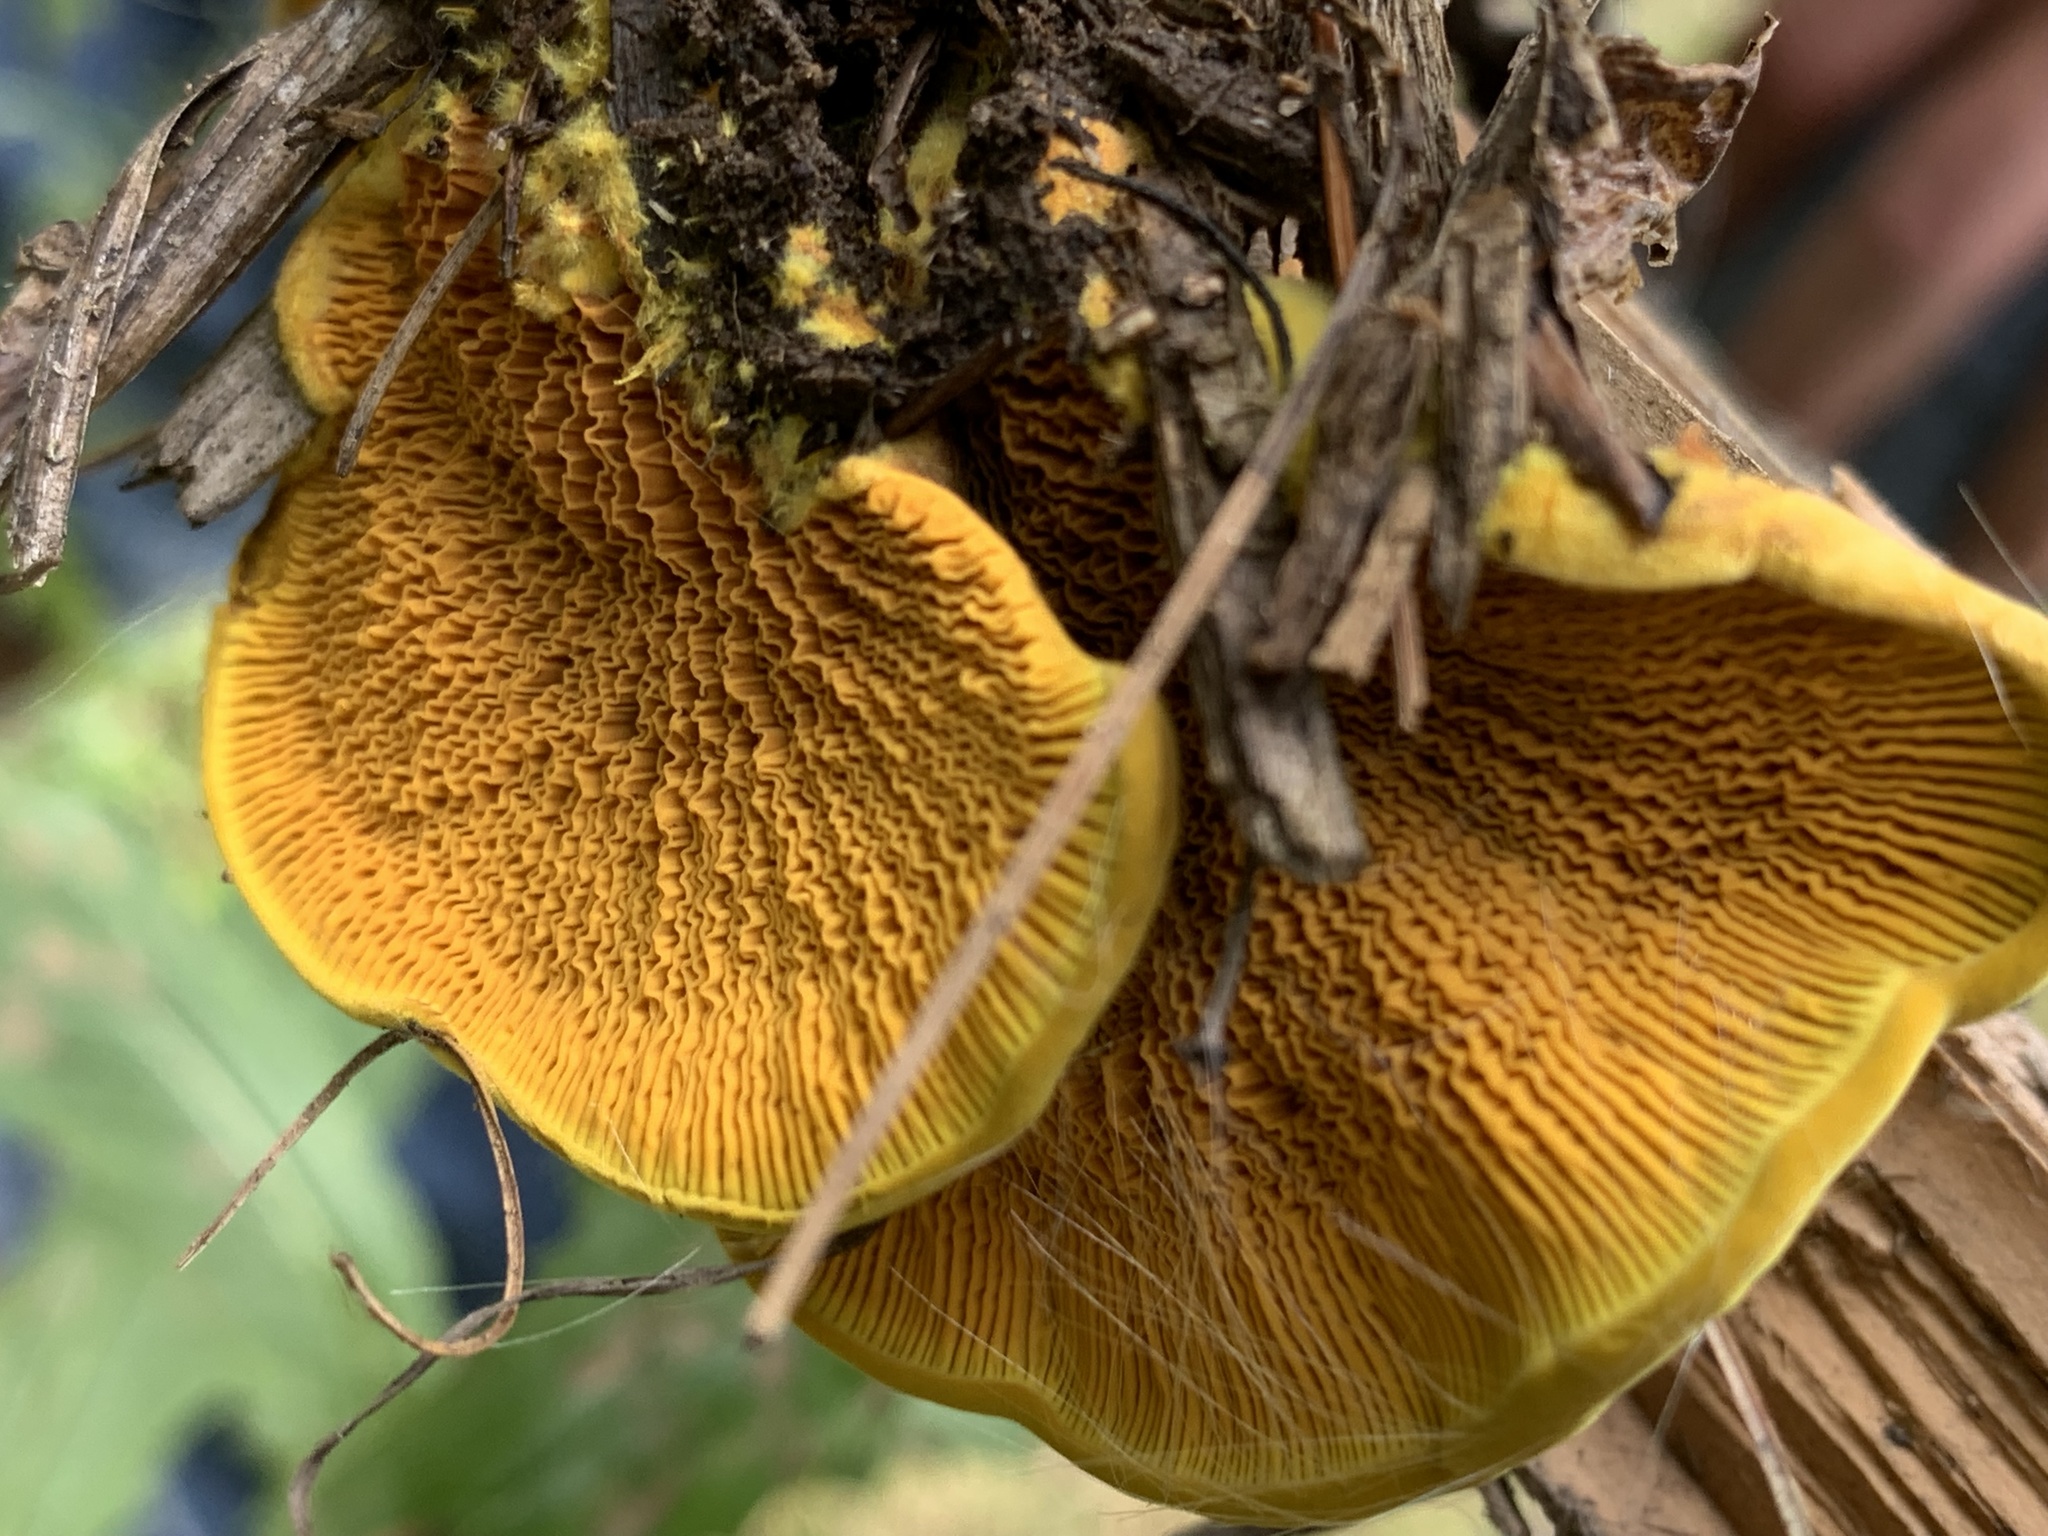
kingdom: Fungi
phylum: Basidiomycota
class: Agaricomycetes
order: Boletales
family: Paxillaceae
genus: Meiorganum
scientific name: Meiorganum curtisii
